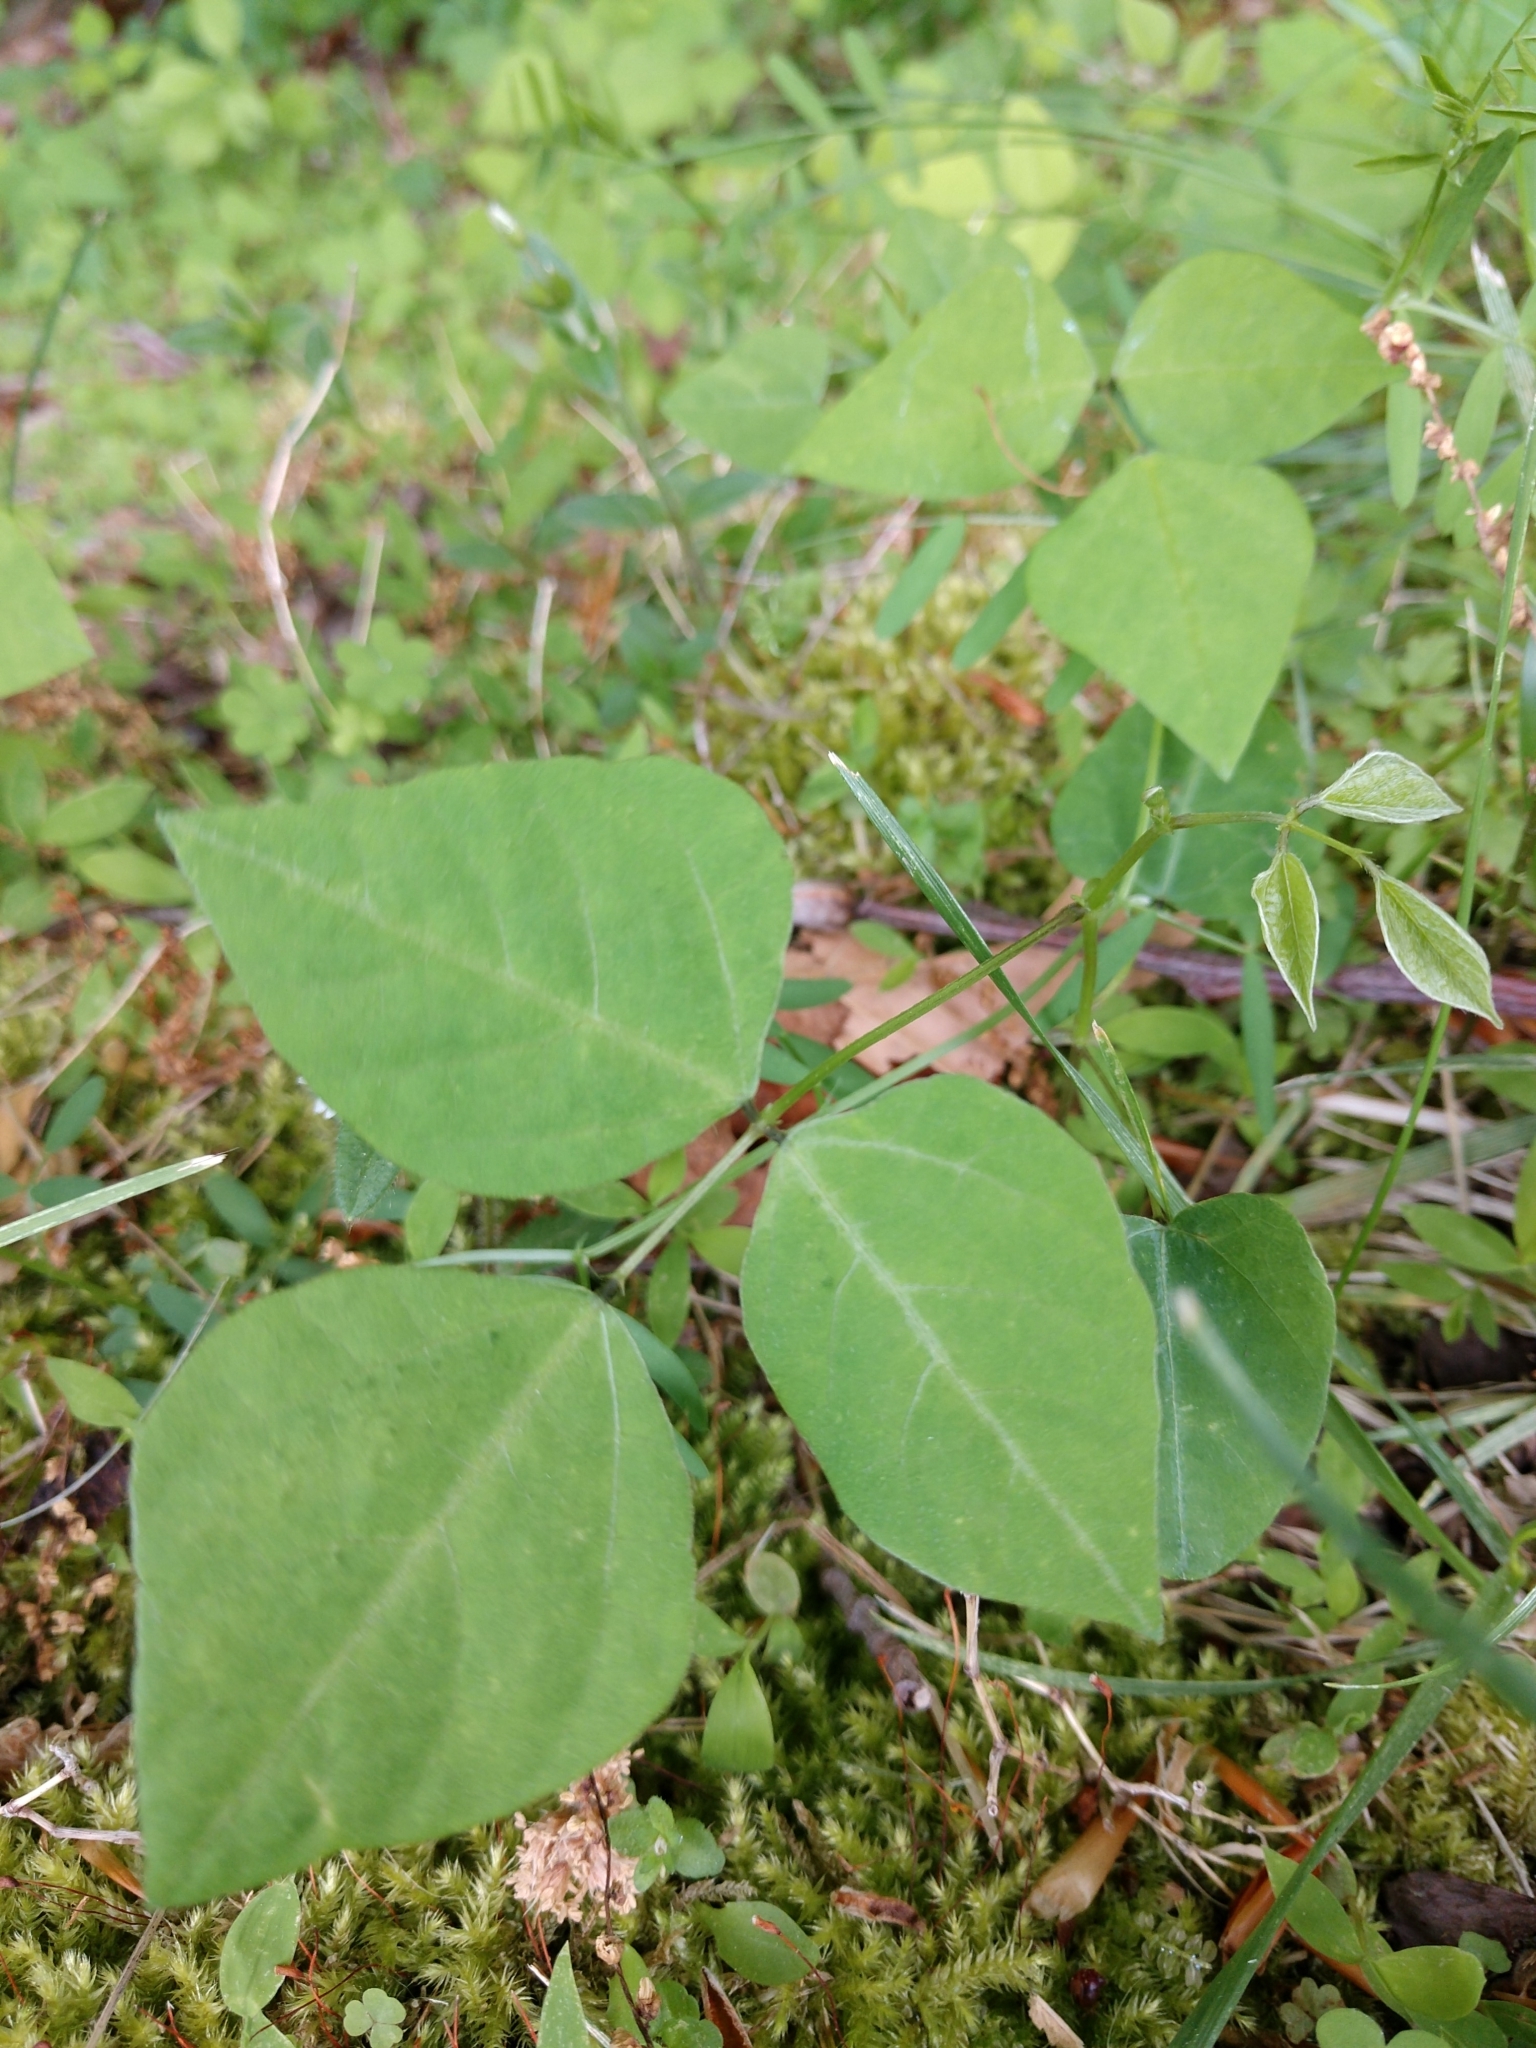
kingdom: Plantae
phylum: Tracheophyta
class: Magnoliopsida
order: Fabales
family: Fabaceae
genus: Amphicarpaea
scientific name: Amphicarpaea bracteata
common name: American hog peanut
